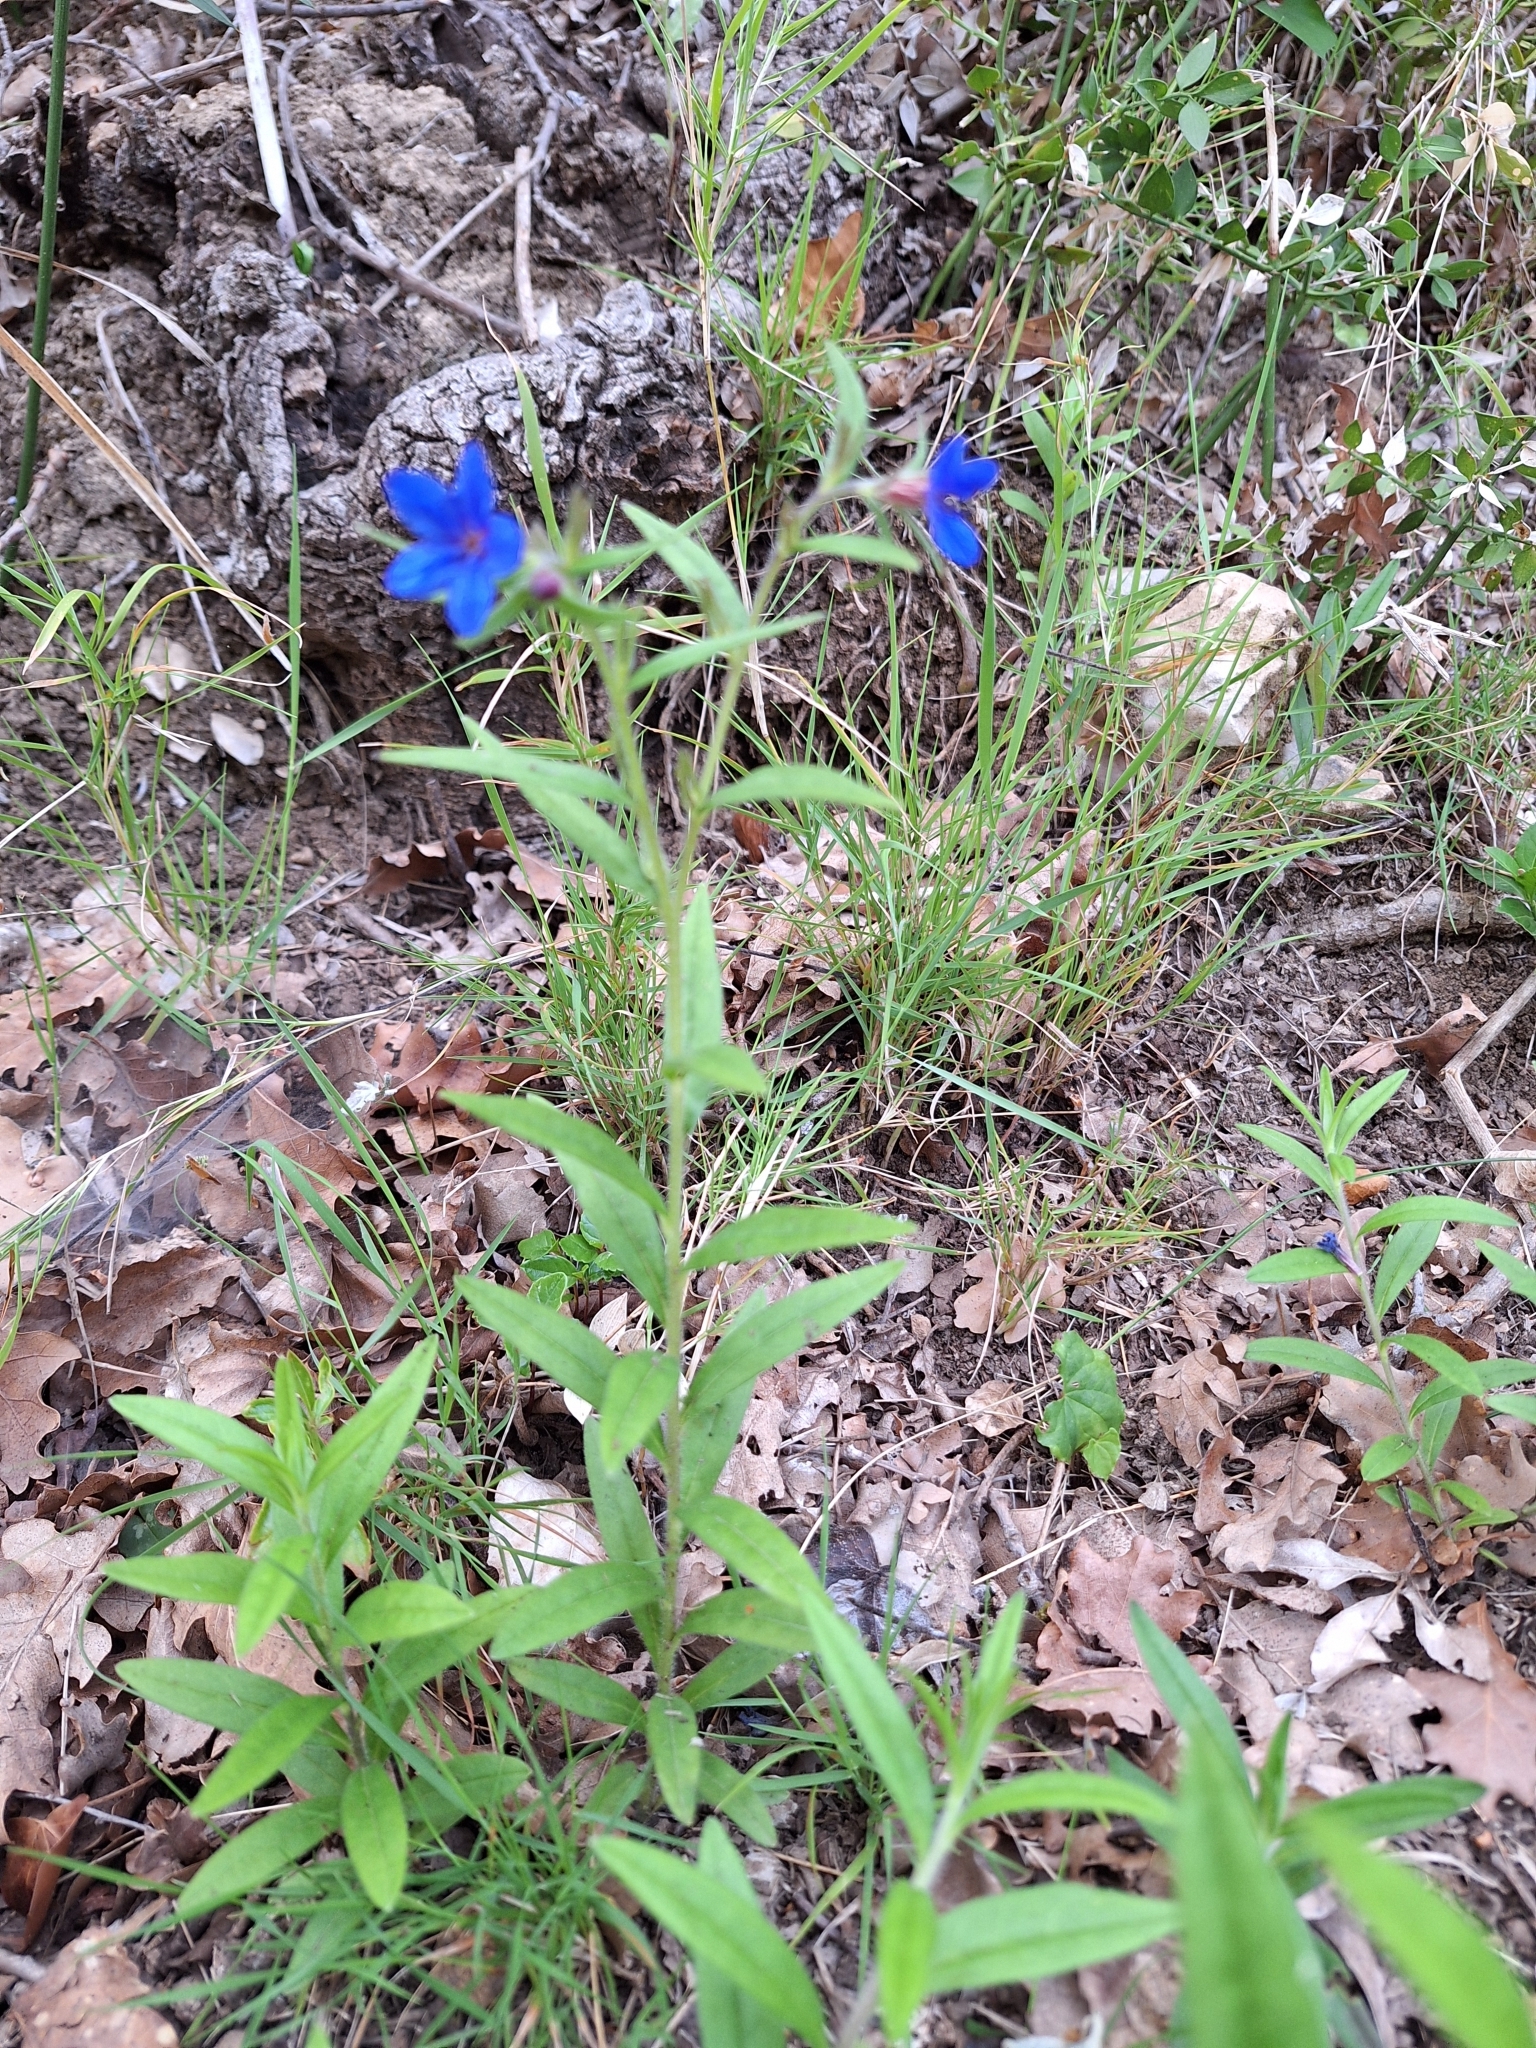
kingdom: Plantae
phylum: Tracheophyta
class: Magnoliopsida
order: Boraginales
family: Boraginaceae
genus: Aegonychon
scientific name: Aegonychon purpurocaeruleum
